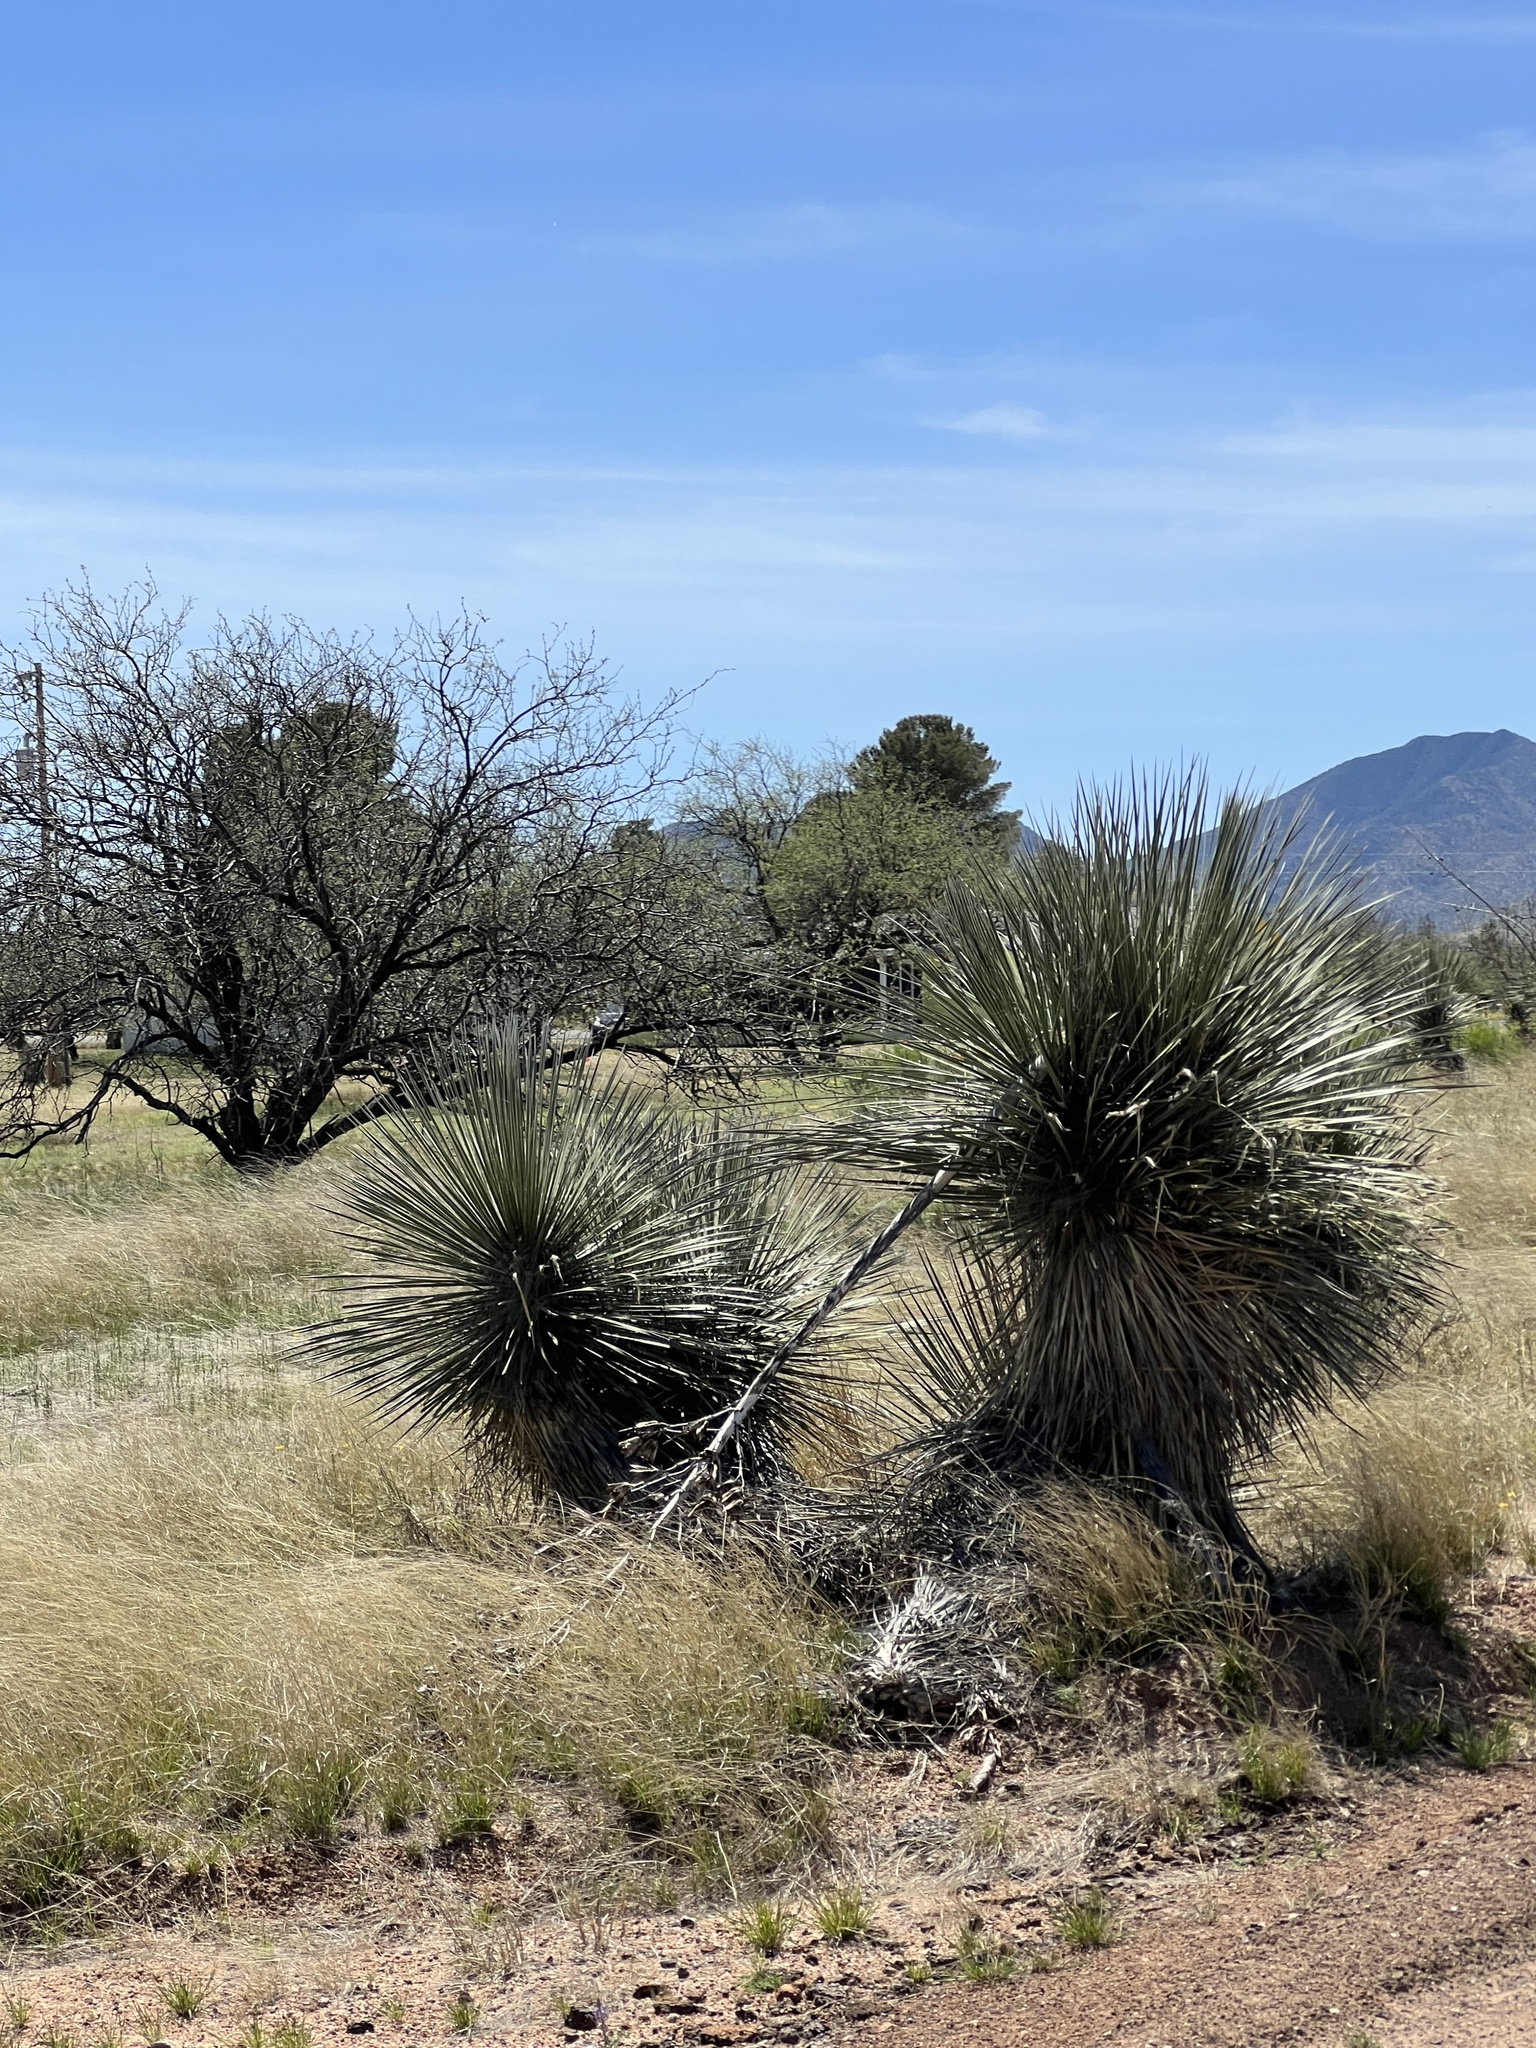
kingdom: Plantae
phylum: Tracheophyta
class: Liliopsida
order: Asparagales
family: Asparagaceae
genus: Yucca
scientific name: Yucca elata
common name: Palmella
